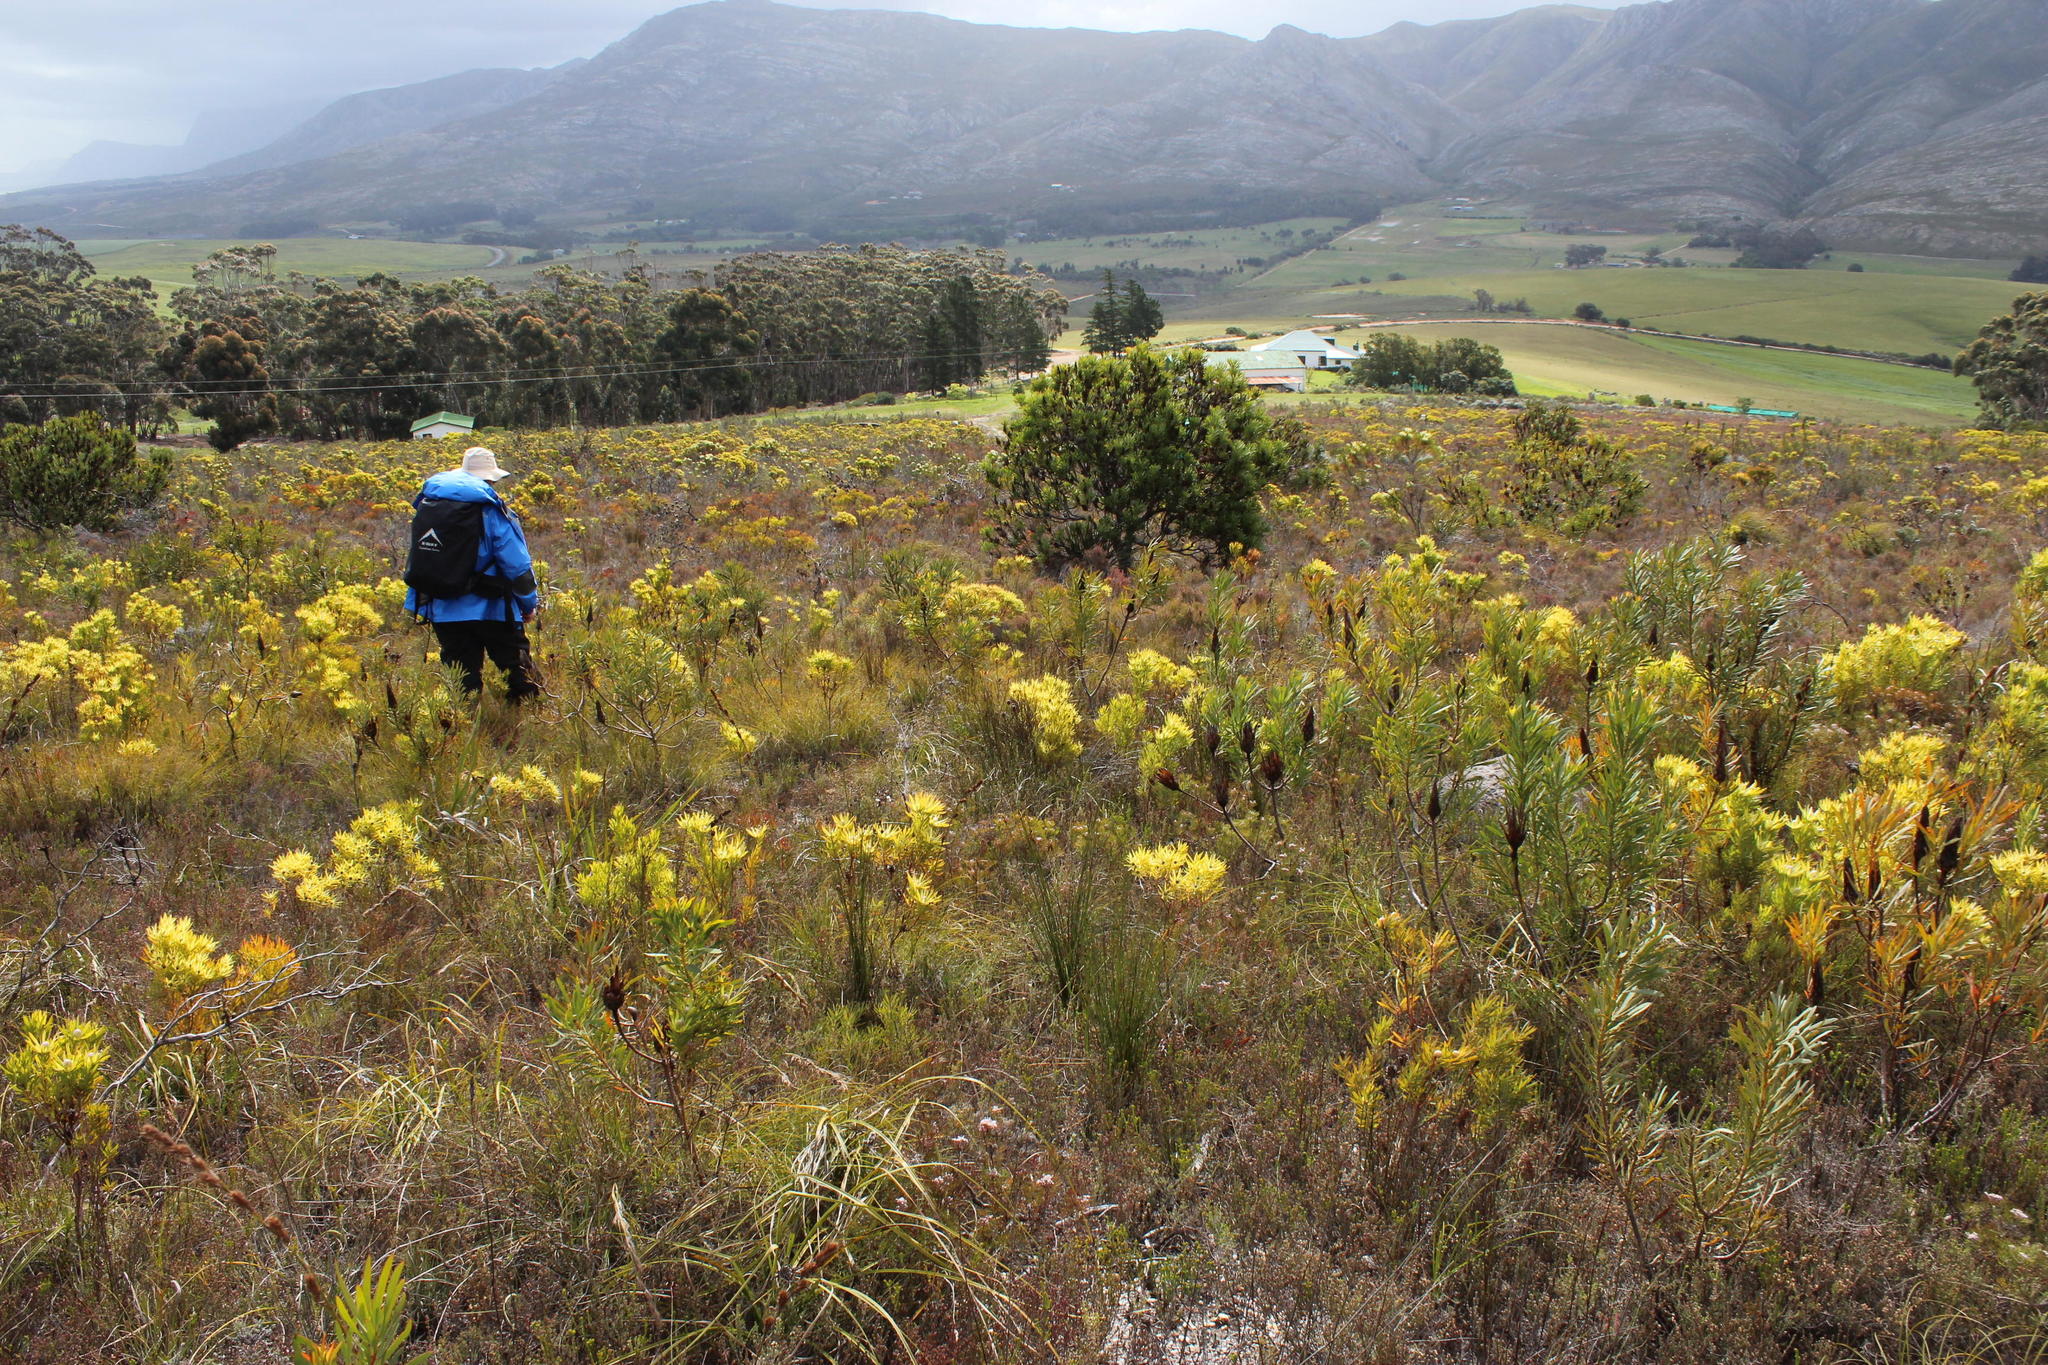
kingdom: Plantae
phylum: Tracheophyta
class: Magnoliopsida
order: Proteales
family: Proteaceae
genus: Protea
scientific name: Protea repens
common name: Sugarbush
